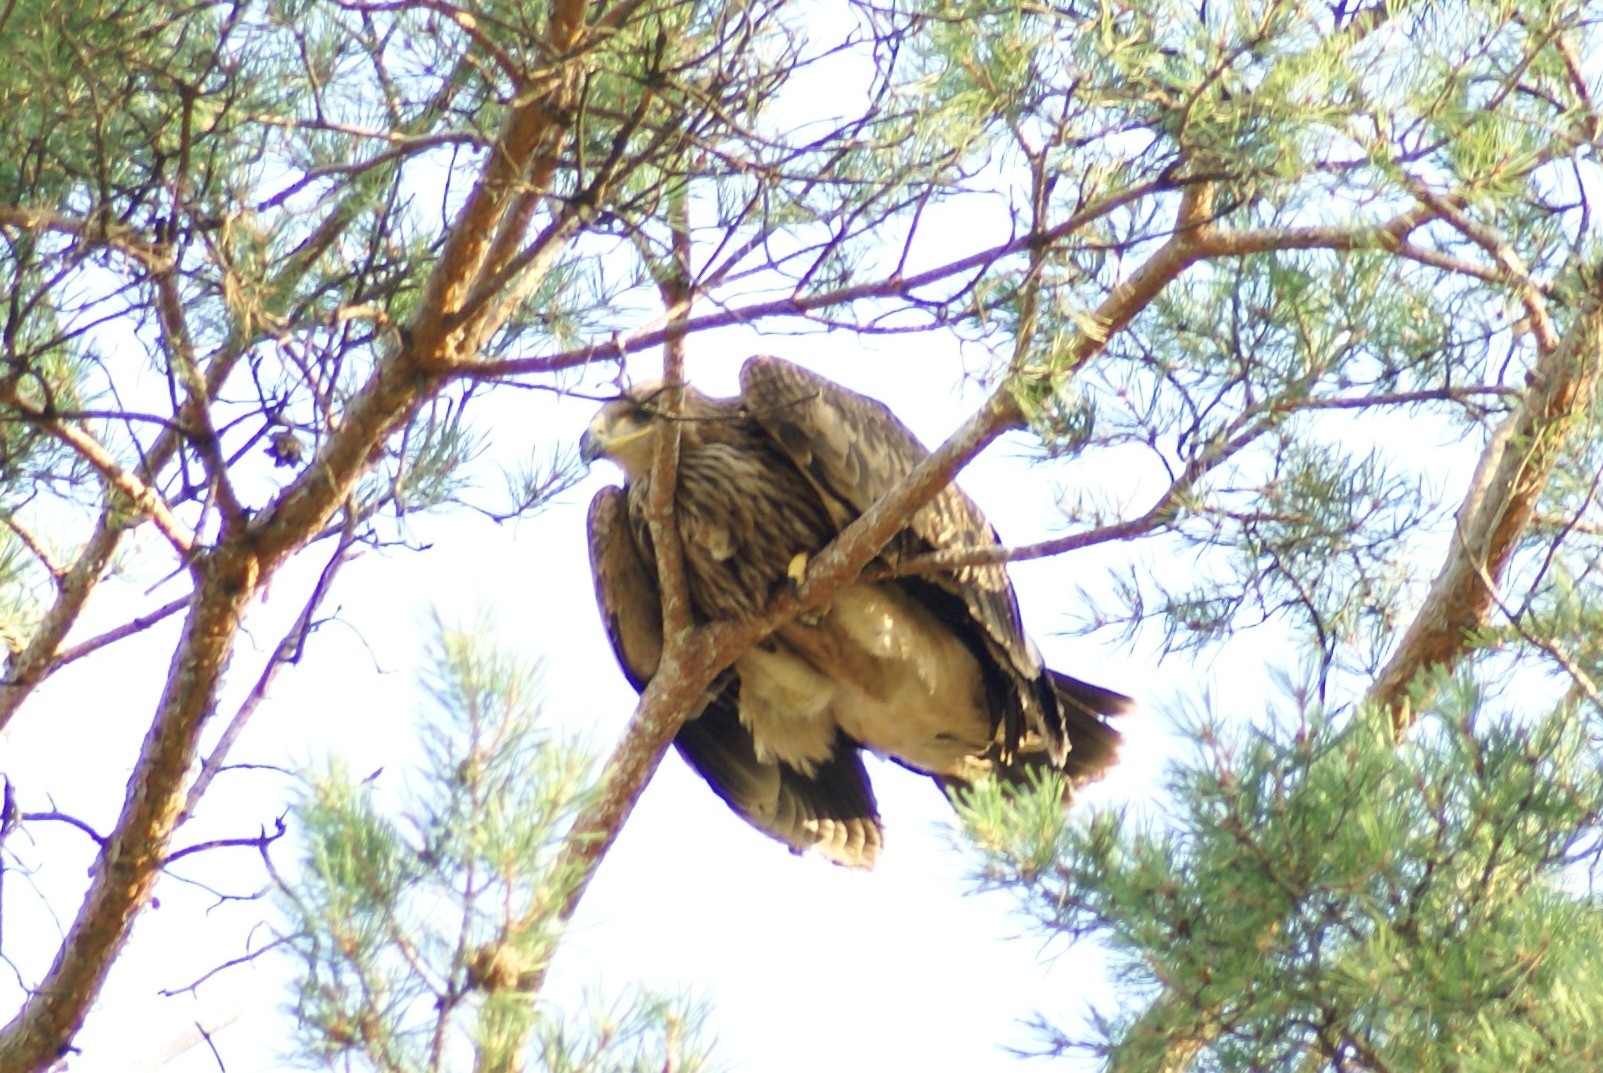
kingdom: Animalia
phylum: Chordata
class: Aves
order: Accipitriformes
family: Accipitridae
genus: Aquila
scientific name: Aquila heliaca
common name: Eastern imperial eagle
